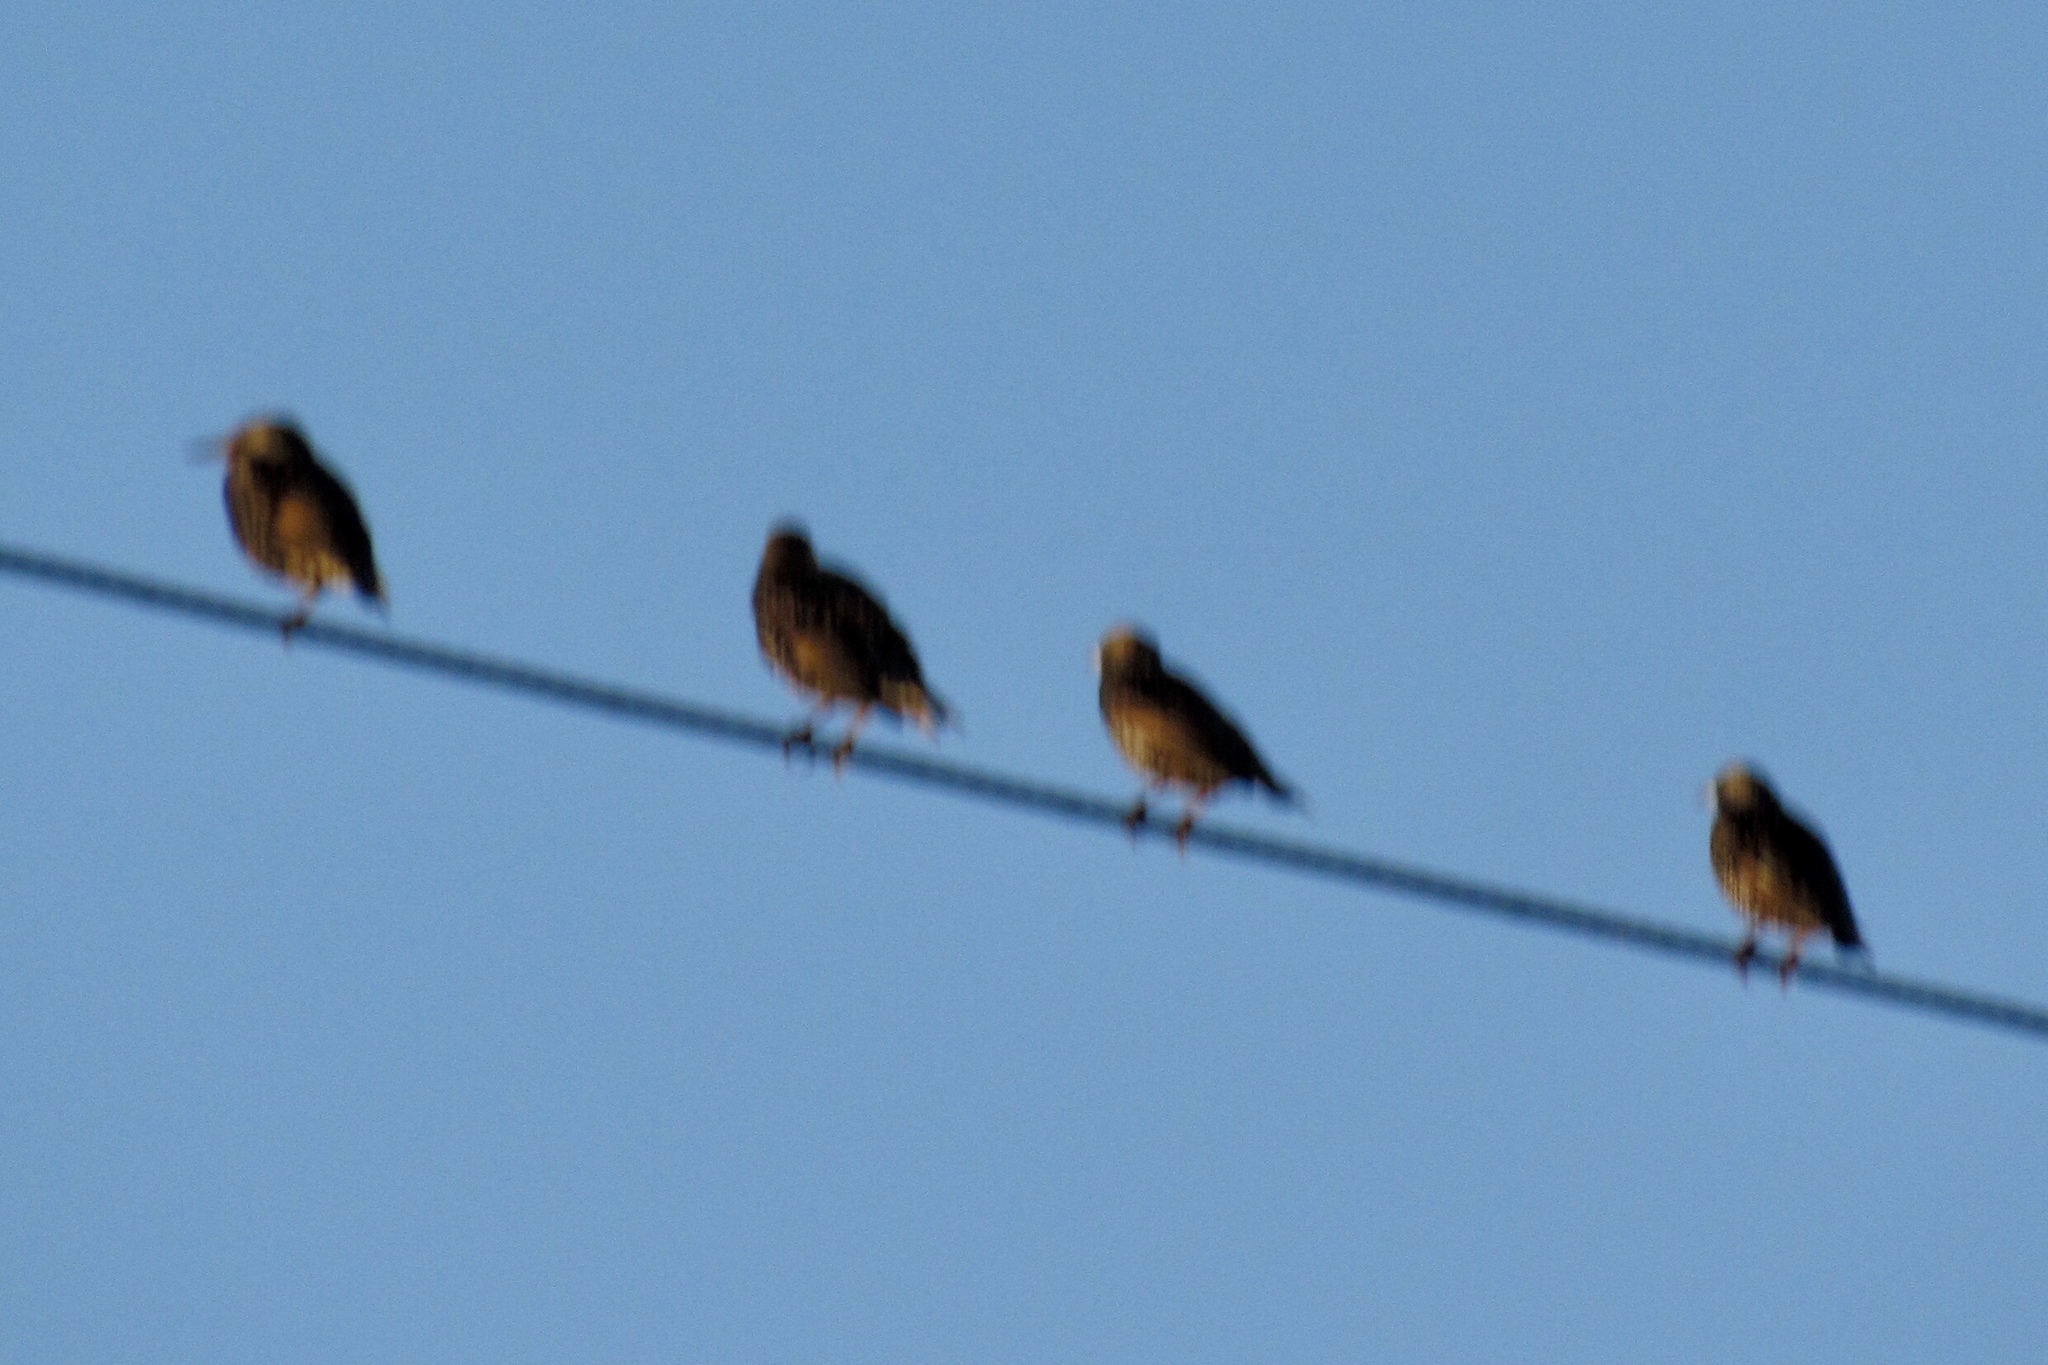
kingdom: Animalia
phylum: Chordata
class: Aves
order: Passeriformes
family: Sturnidae
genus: Sturnus
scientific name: Sturnus vulgaris
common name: Common starling
